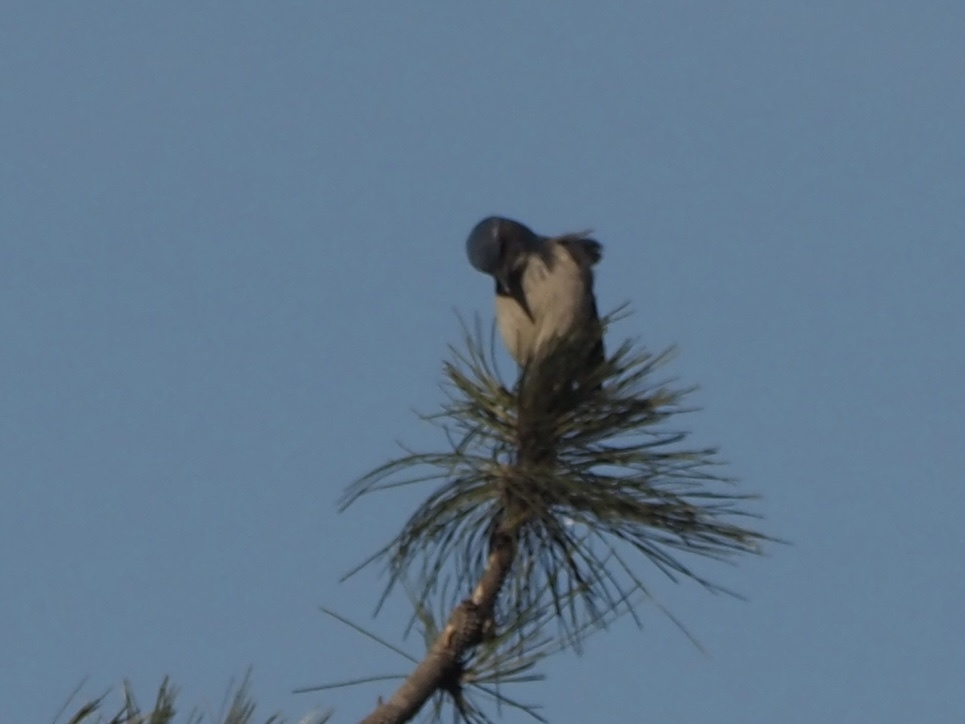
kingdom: Animalia
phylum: Chordata
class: Aves
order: Passeriformes
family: Corvidae
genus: Aphelocoma
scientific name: Aphelocoma californica
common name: California scrub-jay
